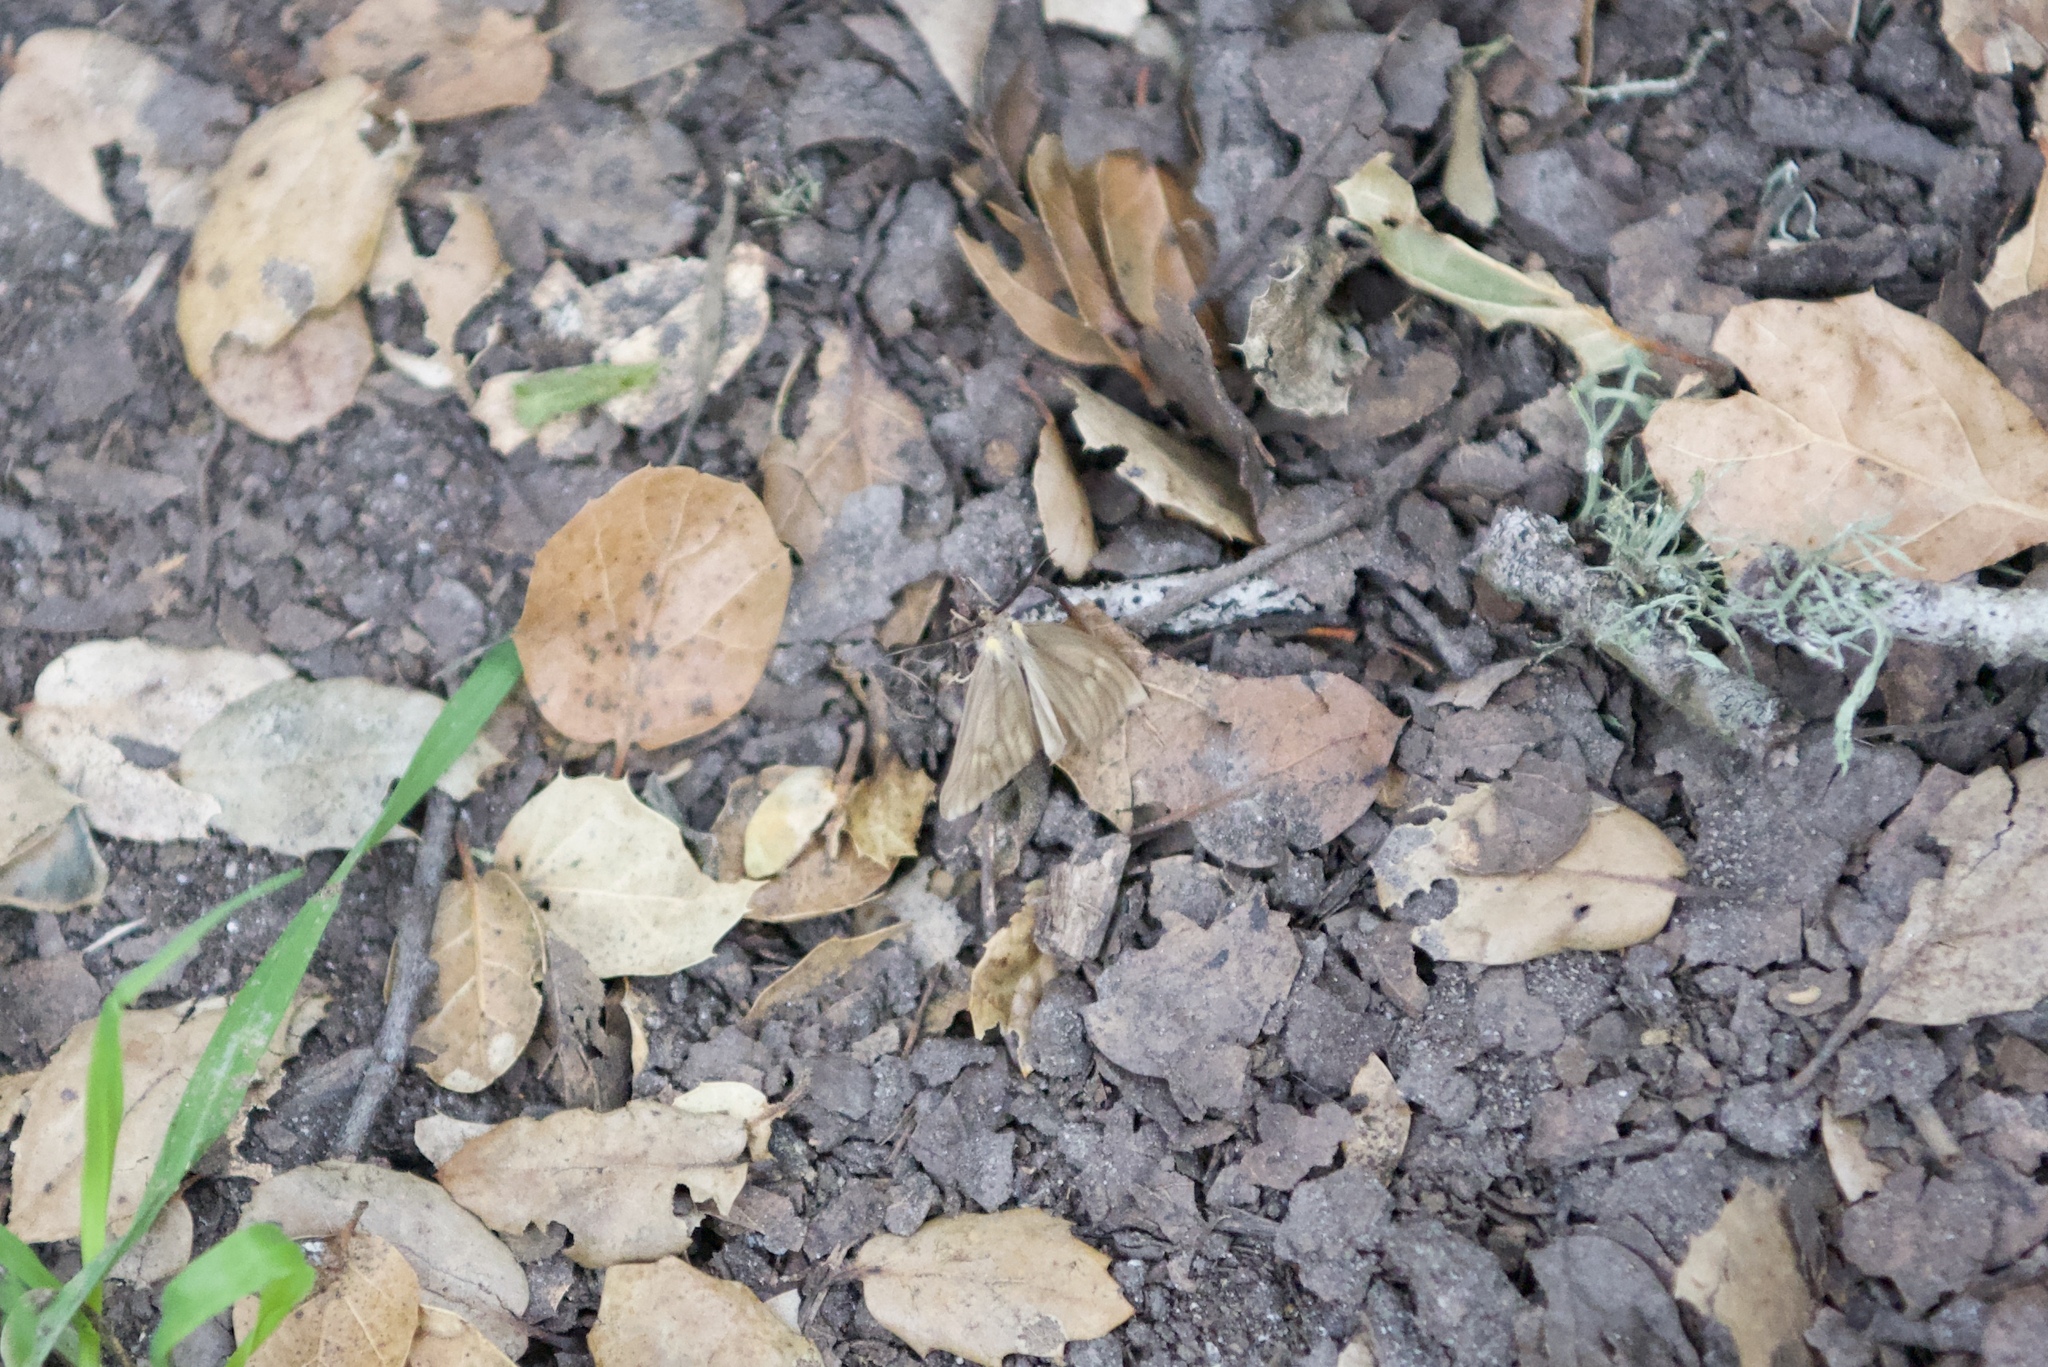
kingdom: Animalia
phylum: Arthropoda
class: Insecta
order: Lepidoptera
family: Notodontidae
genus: Phryganidia
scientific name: Phryganidia californica
